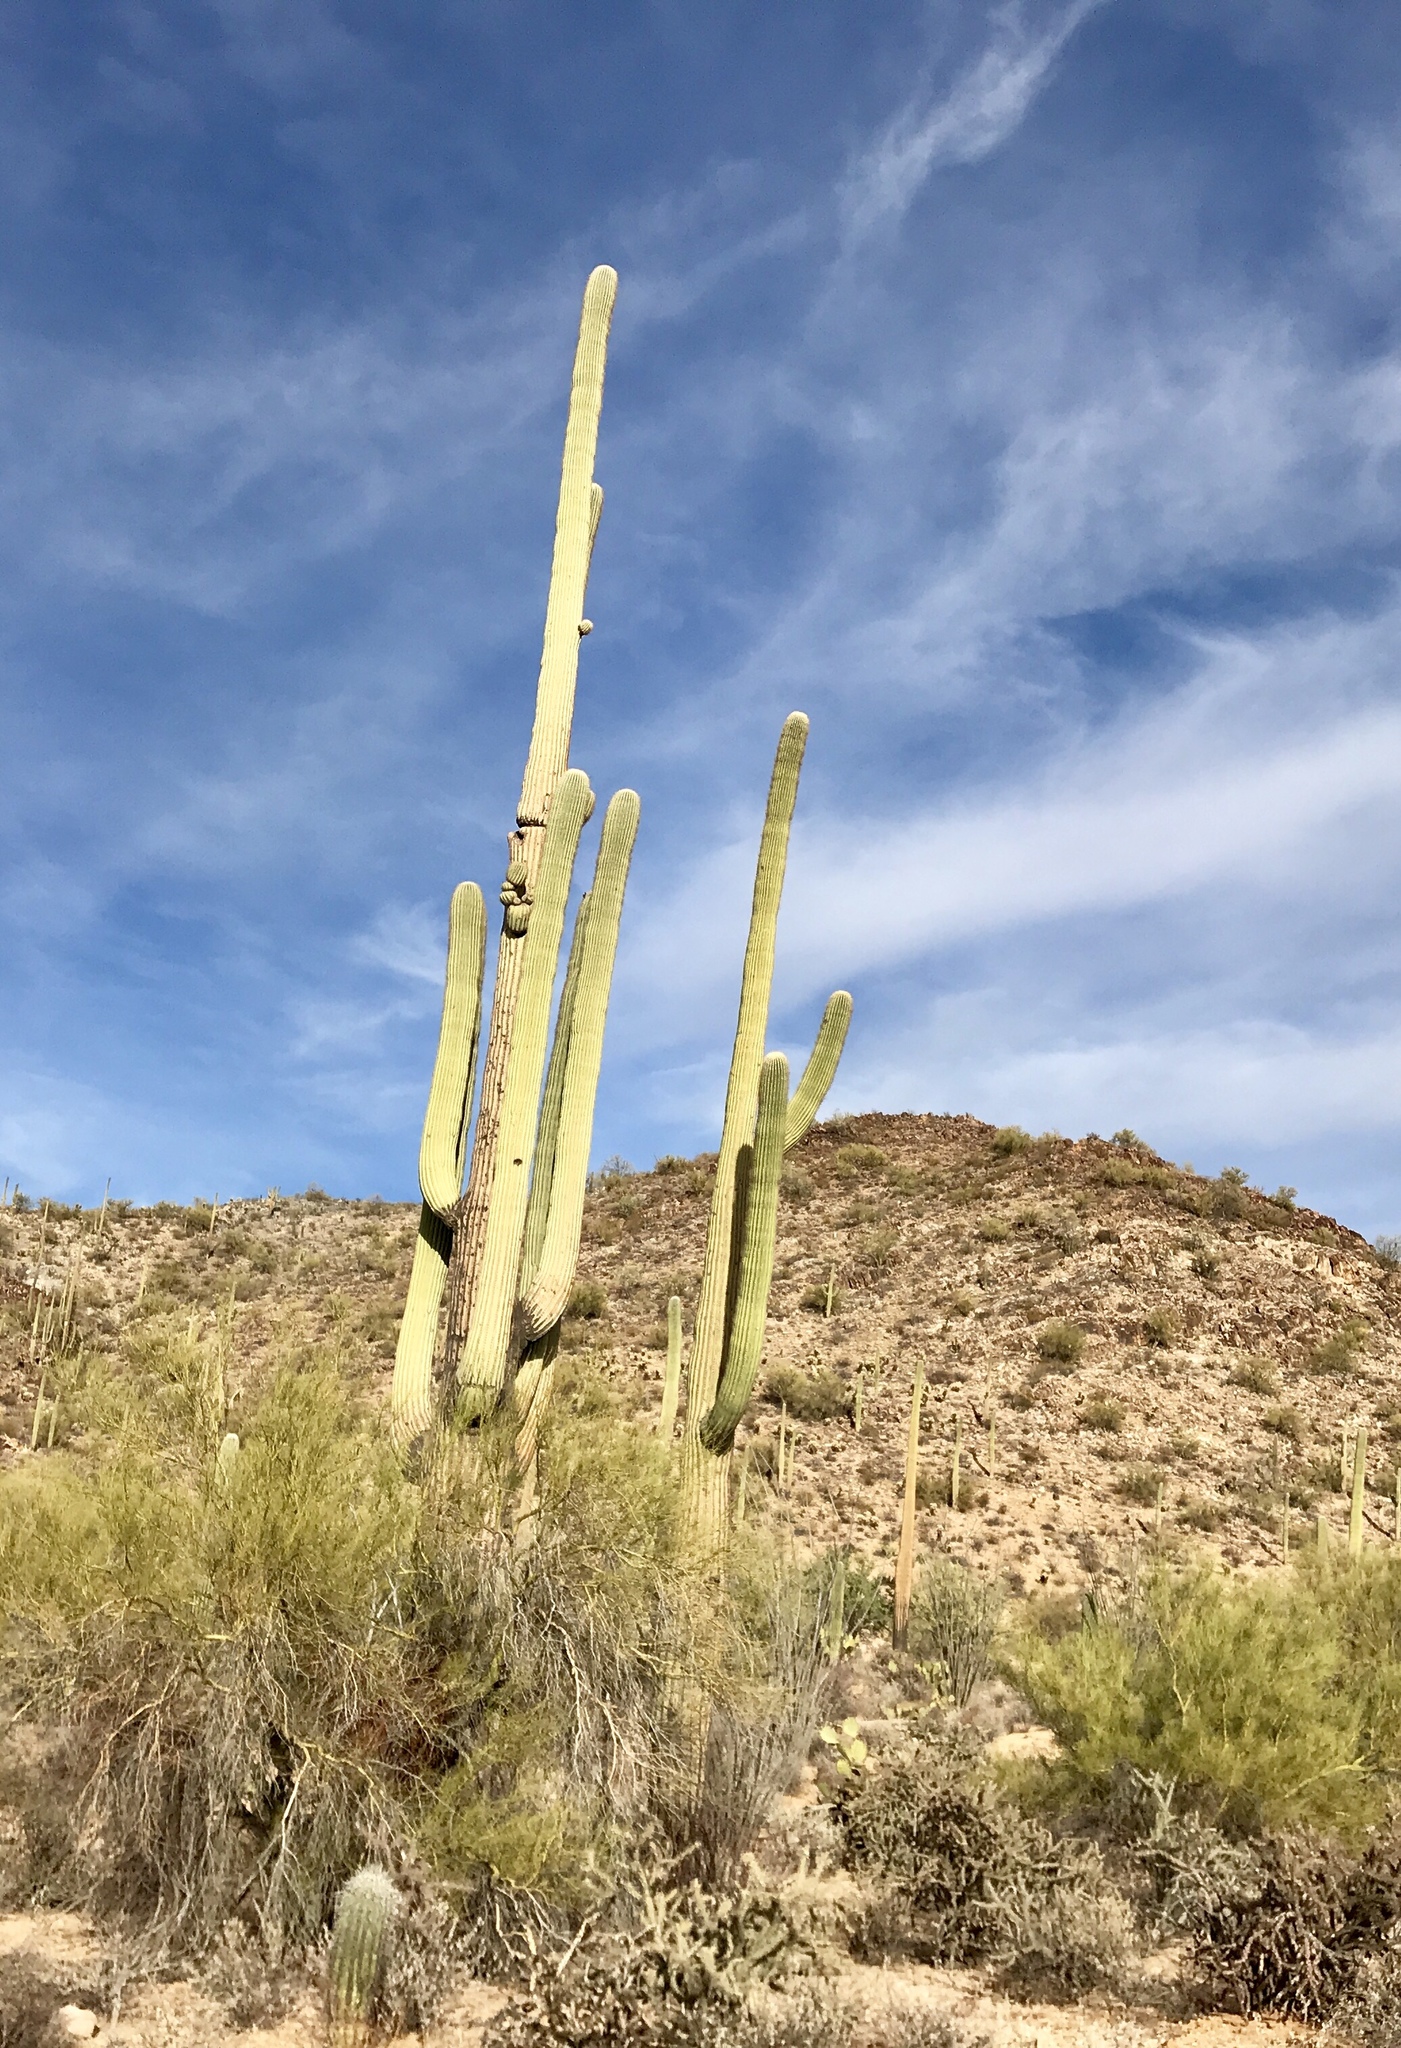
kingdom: Plantae
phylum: Tracheophyta
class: Magnoliopsida
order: Caryophyllales
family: Cactaceae
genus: Carnegiea
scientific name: Carnegiea gigantea
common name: Saguaro
